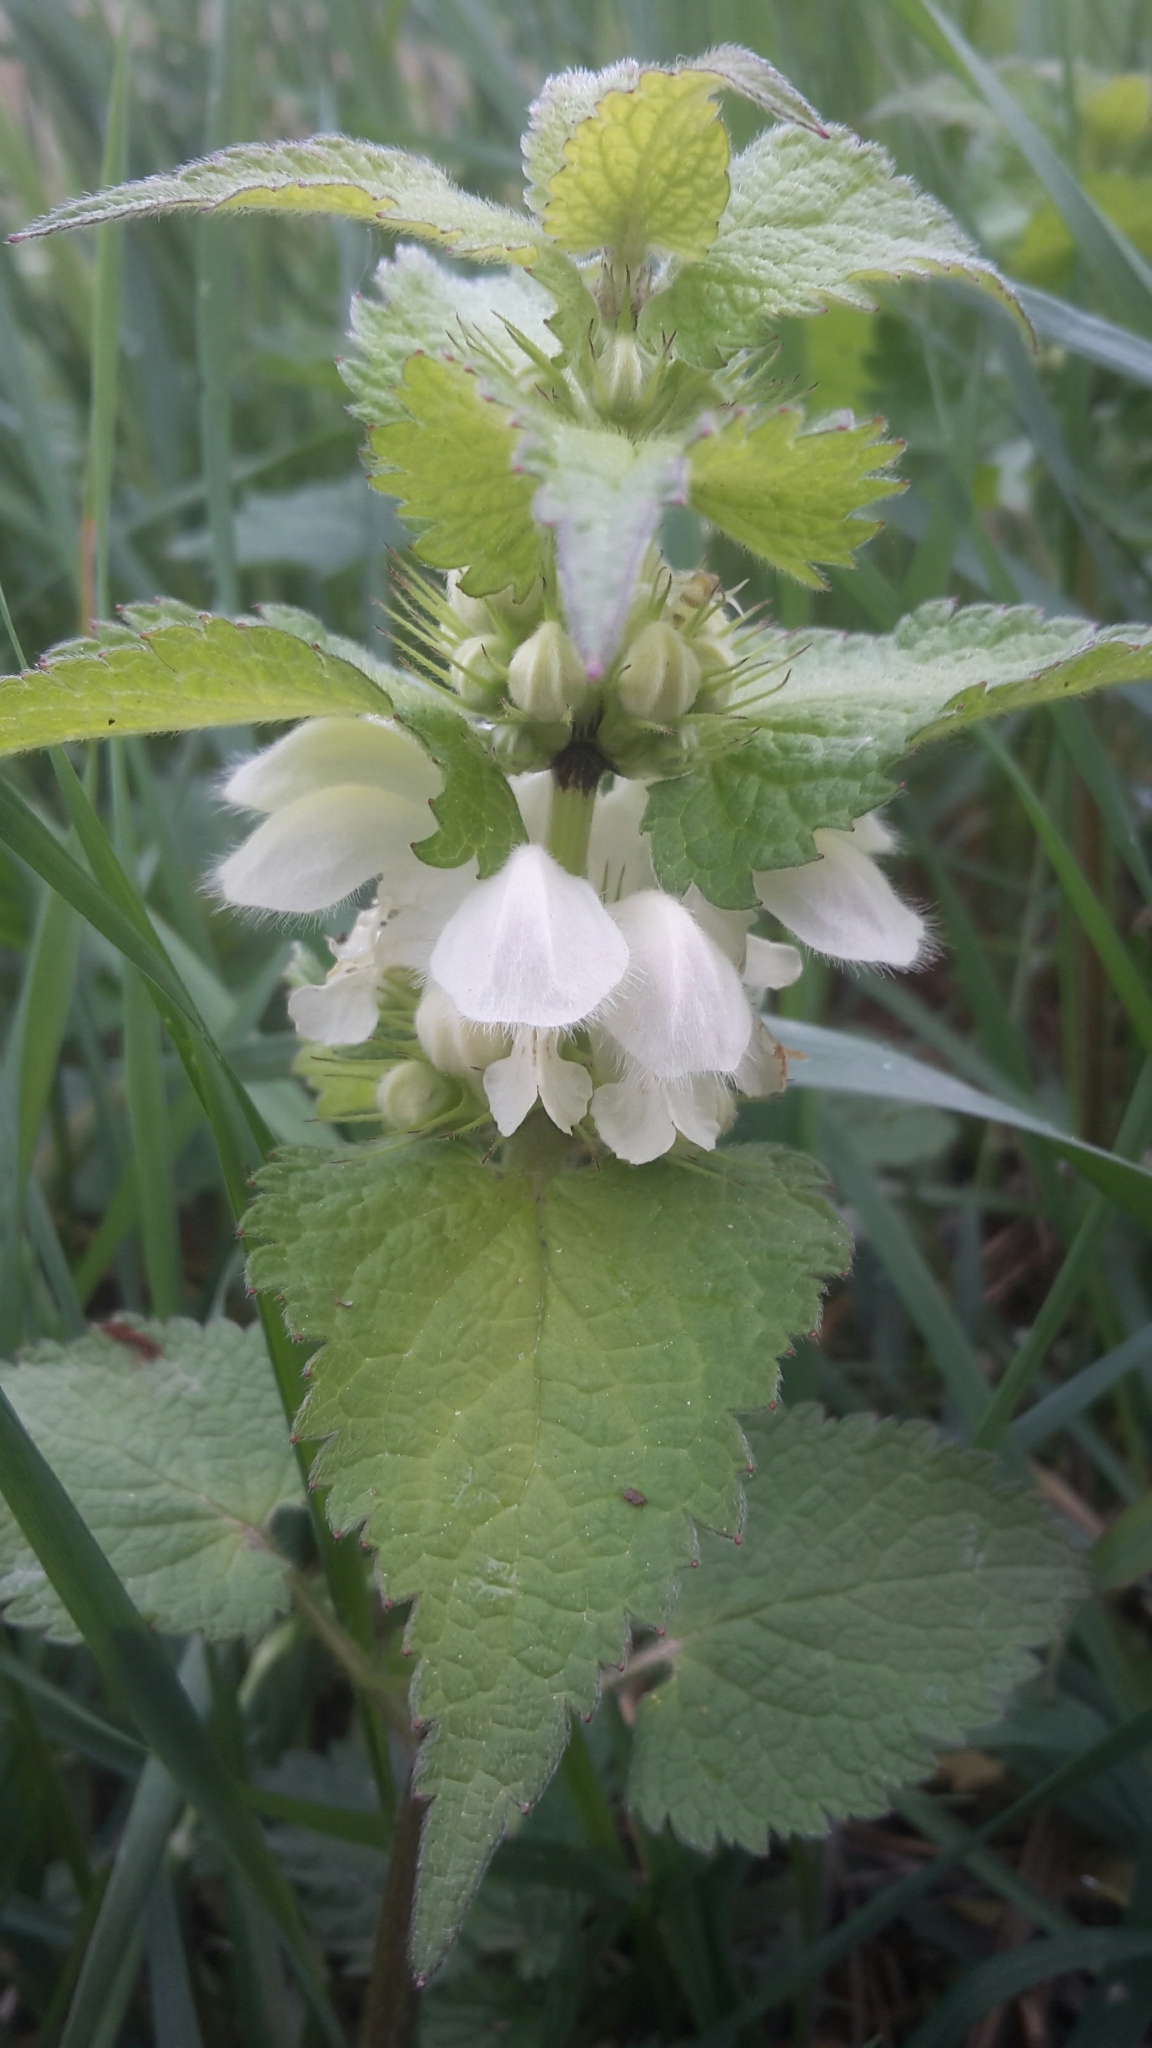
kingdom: Plantae
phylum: Tracheophyta
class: Magnoliopsida
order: Lamiales
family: Lamiaceae
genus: Lamium
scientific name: Lamium album
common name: White dead-nettle
